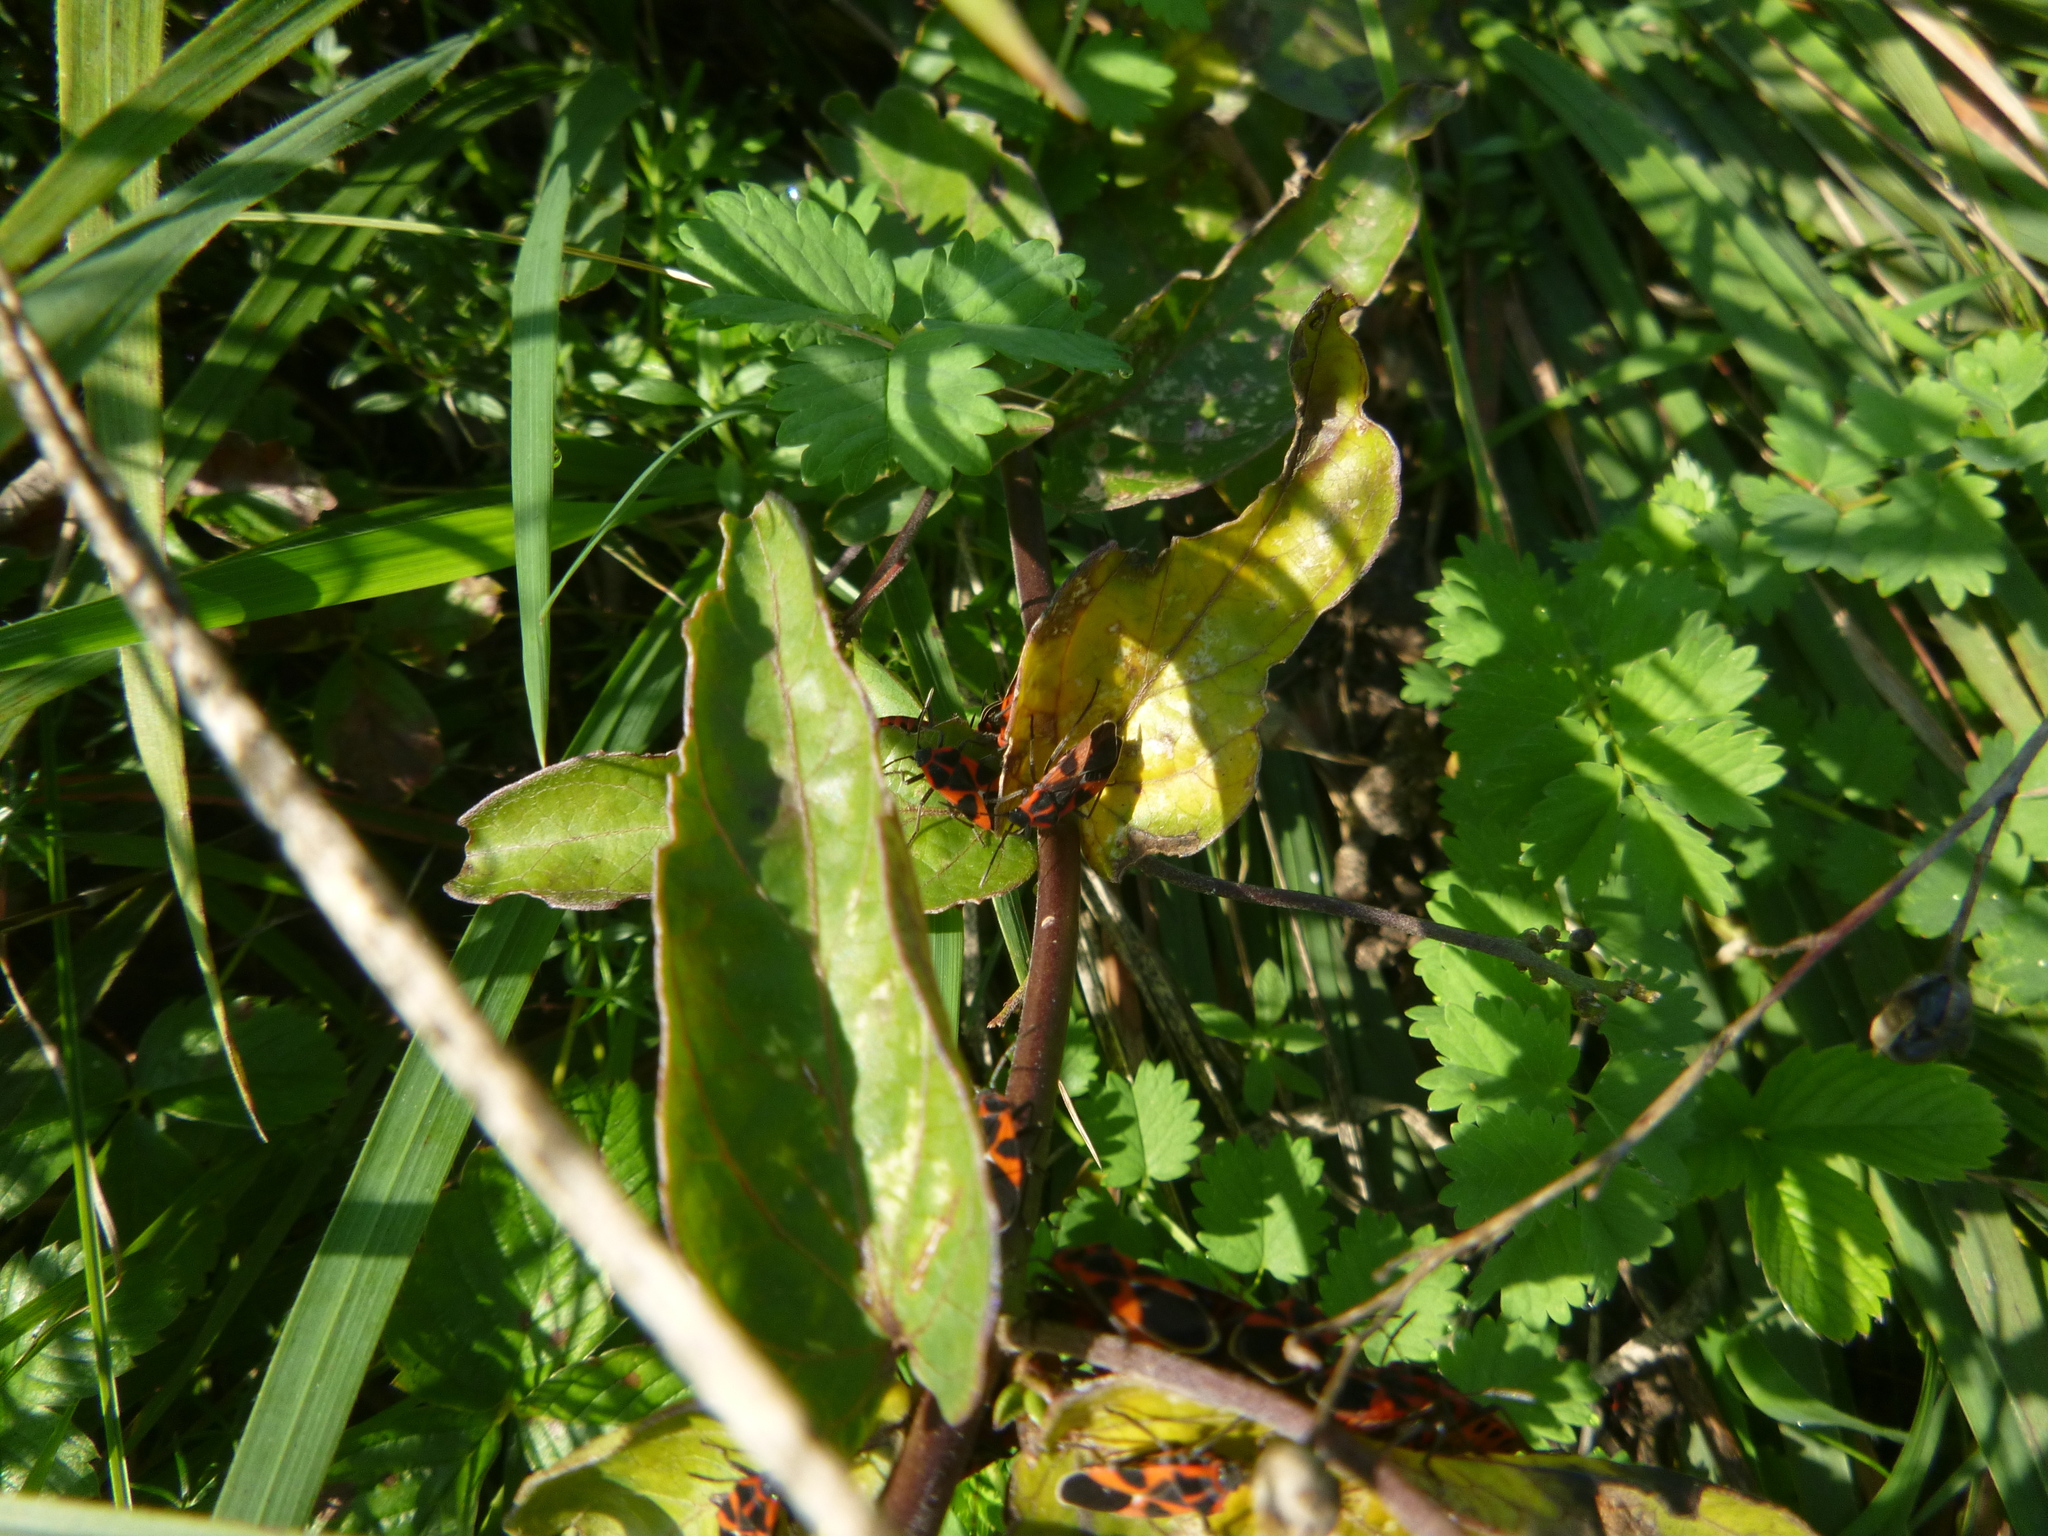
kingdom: Animalia
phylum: Arthropoda
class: Insecta
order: Hemiptera
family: Lygaeidae
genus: Tropidothorax
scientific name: Tropidothorax leucopterus
